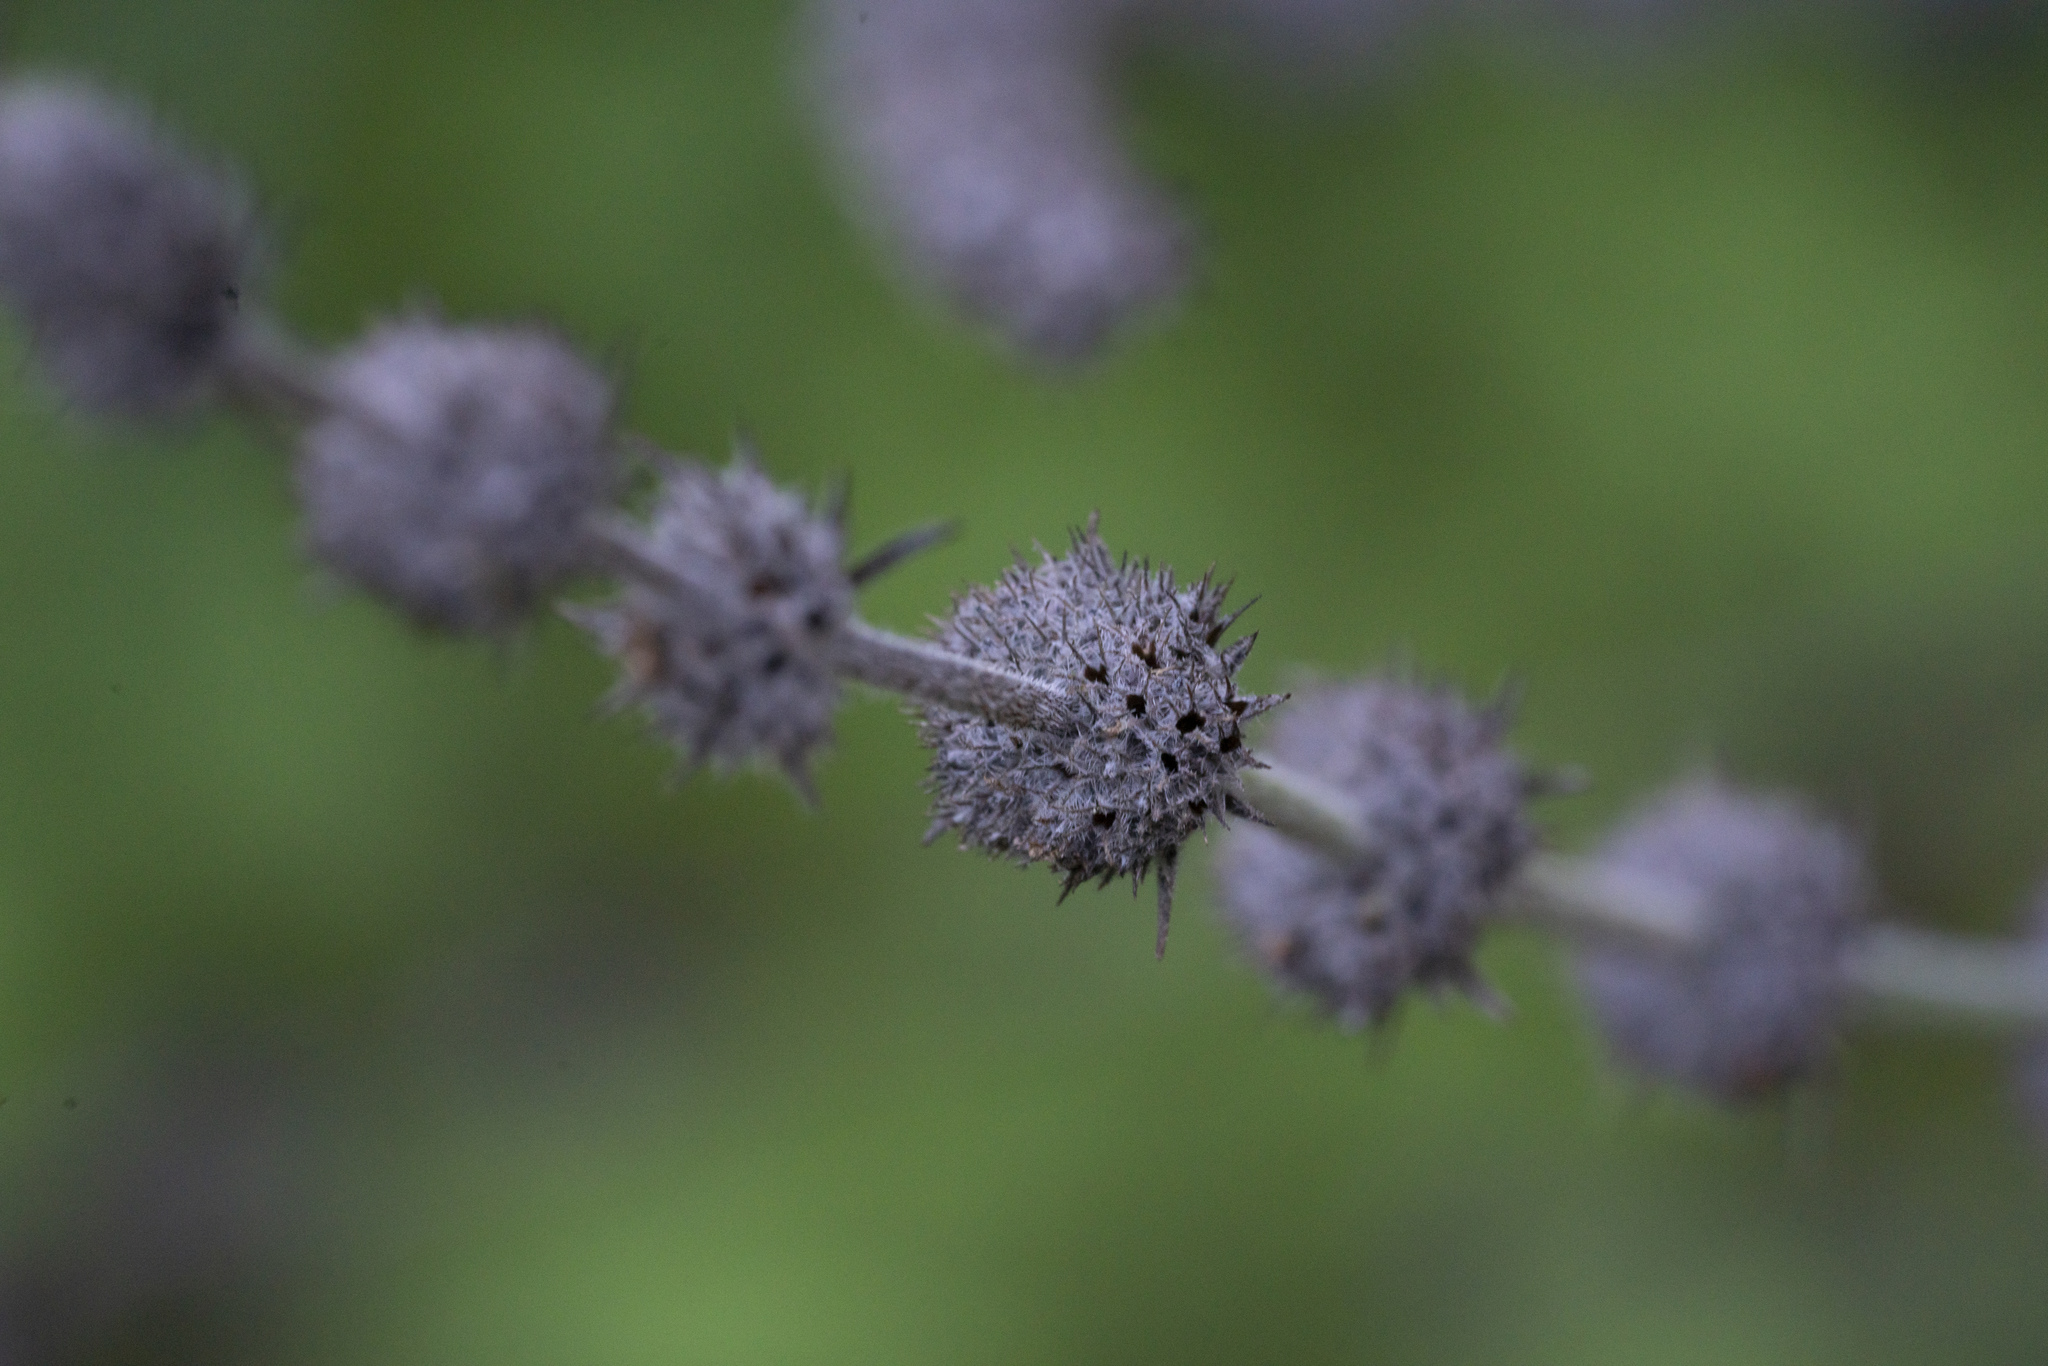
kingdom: Plantae
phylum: Tracheophyta
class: Magnoliopsida
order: Lamiales
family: Lamiaceae
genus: Micromeria
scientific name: Micromeria myrtifolia
